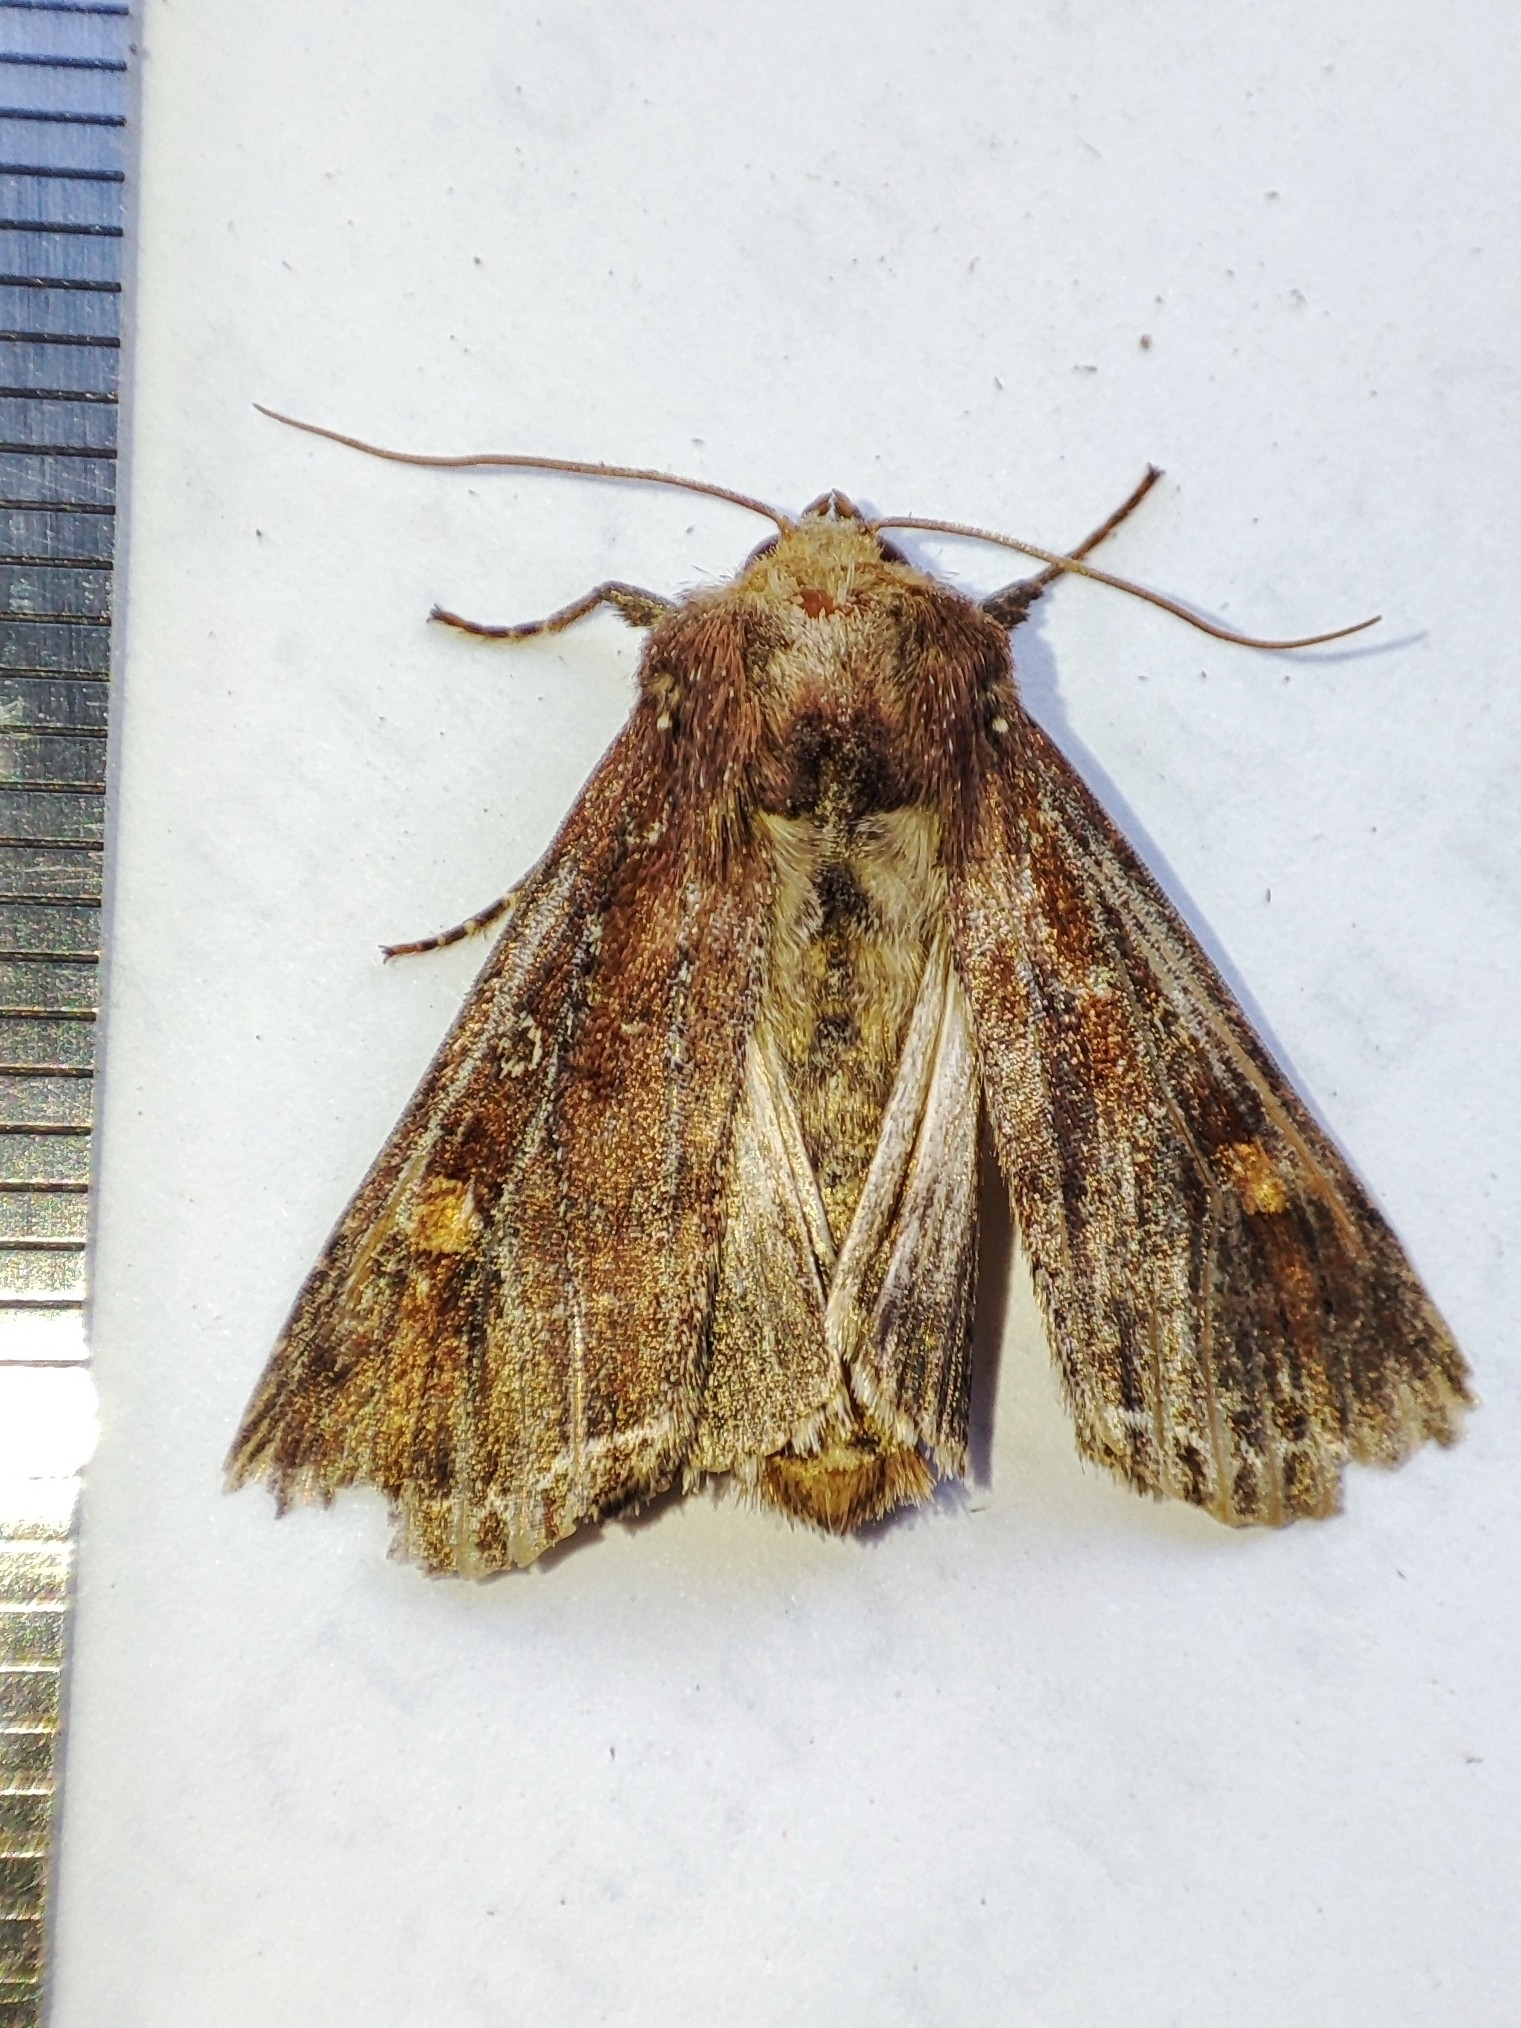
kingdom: Animalia
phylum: Arthropoda
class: Insecta
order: Lepidoptera
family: Noctuidae
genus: Lacanobia
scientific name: Lacanobia oleracea
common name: Bright-line brown-eye
